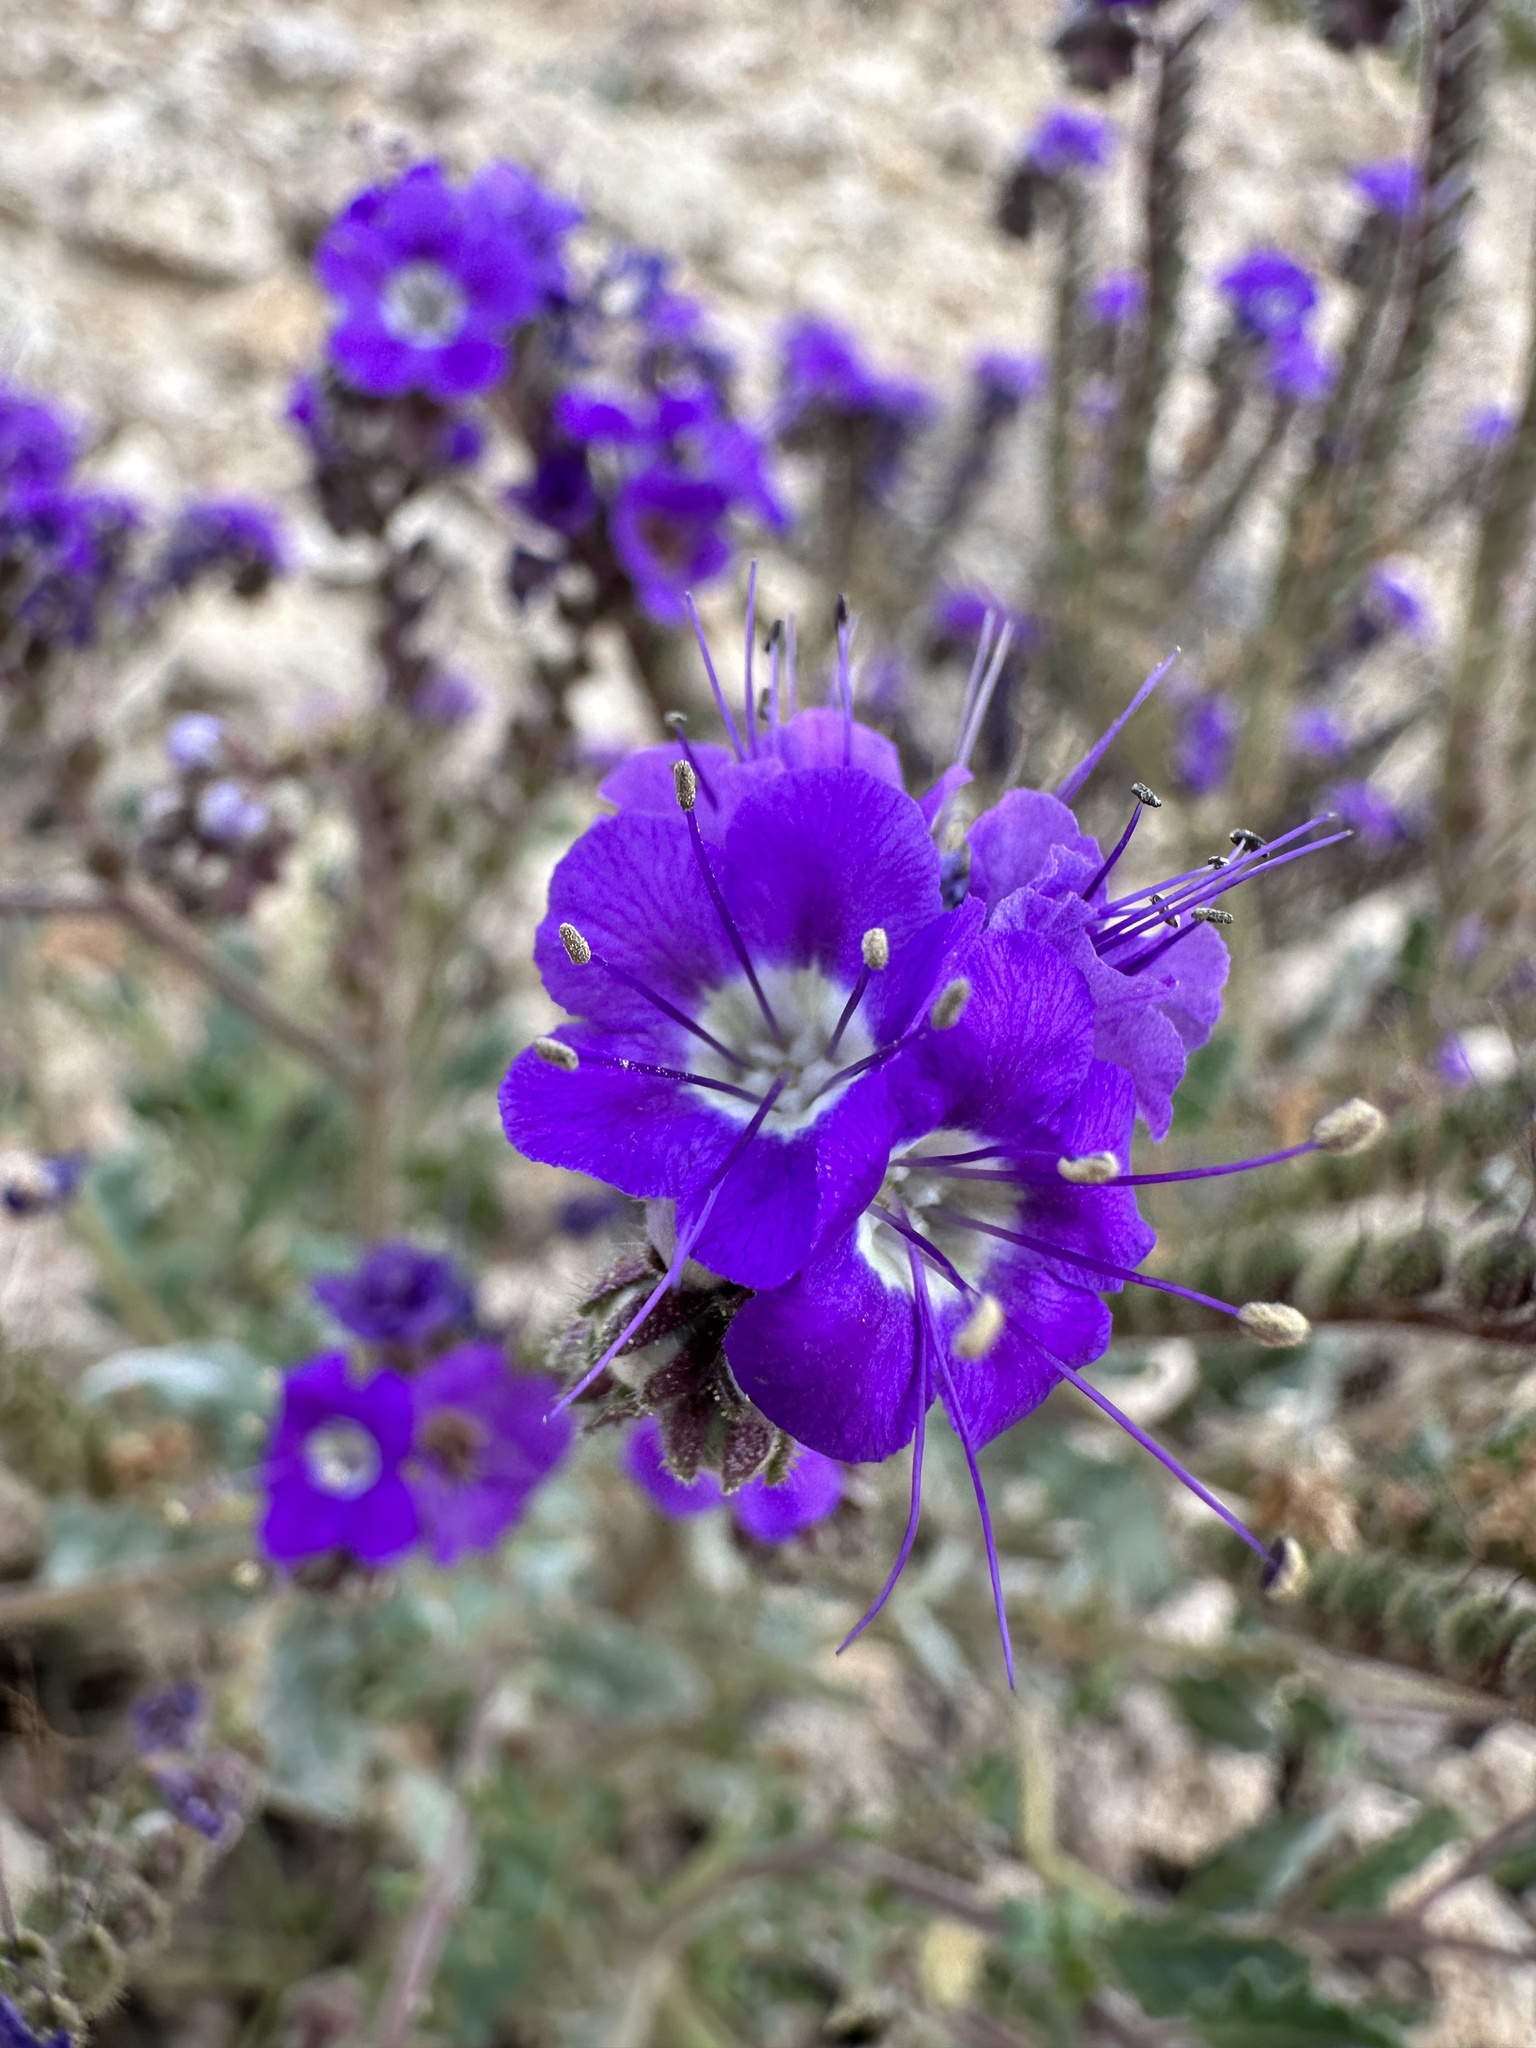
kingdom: Plantae
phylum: Tracheophyta
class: Magnoliopsida
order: Boraginales
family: Hydrophyllaceae
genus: Phacelia
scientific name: Phacelia crenulata
